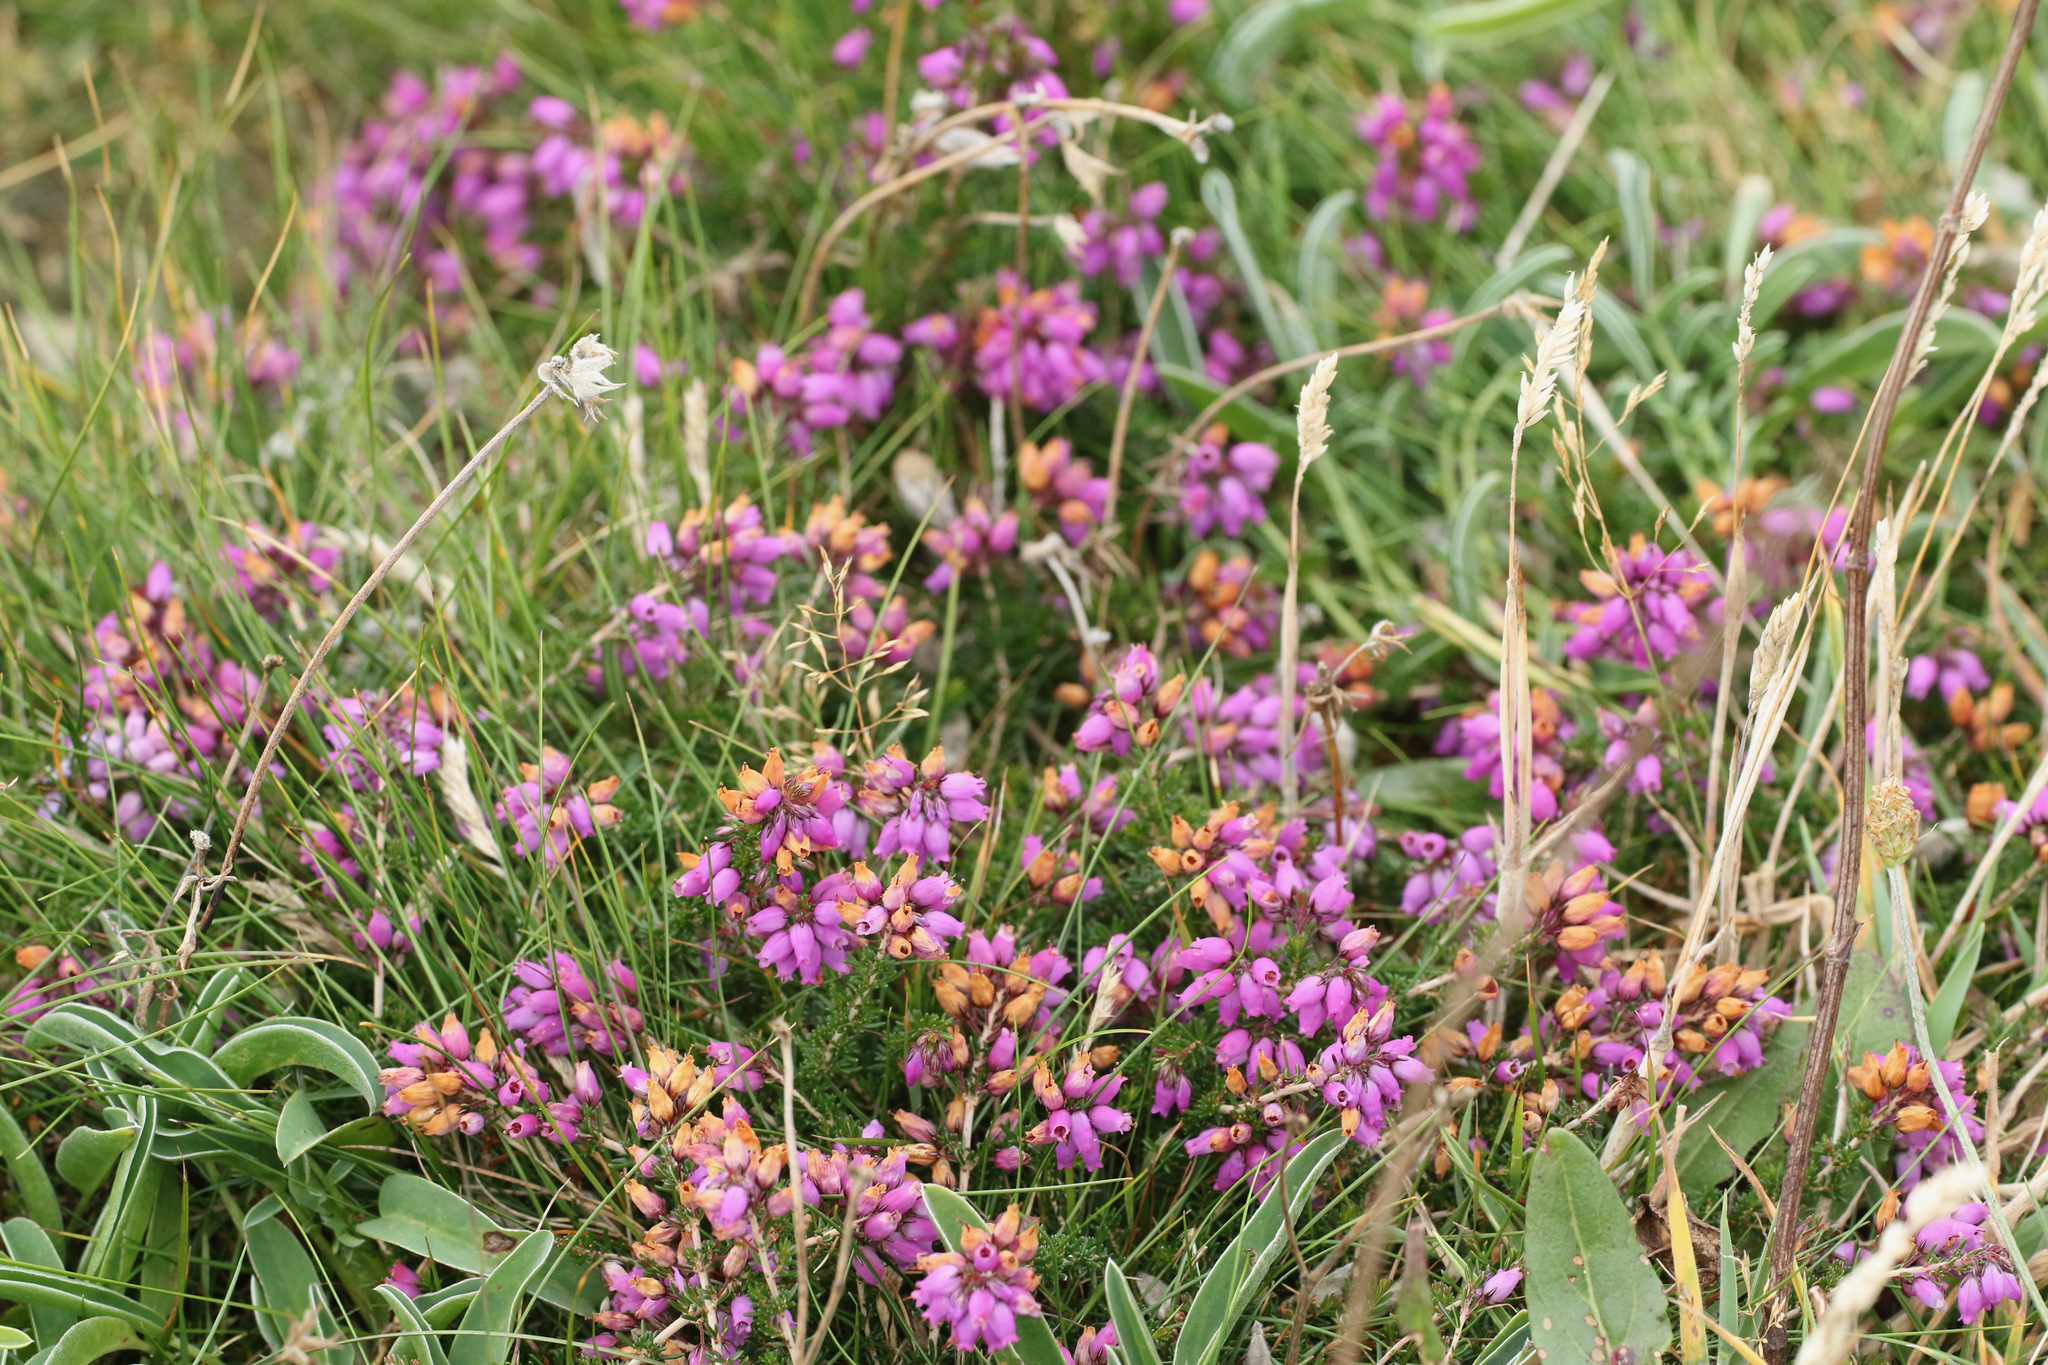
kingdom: Plantae
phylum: Tracheophyta
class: Magnoliopsida
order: Ericales
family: Ericaceae
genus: Erica
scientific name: Erica cinerea
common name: Bell heather
